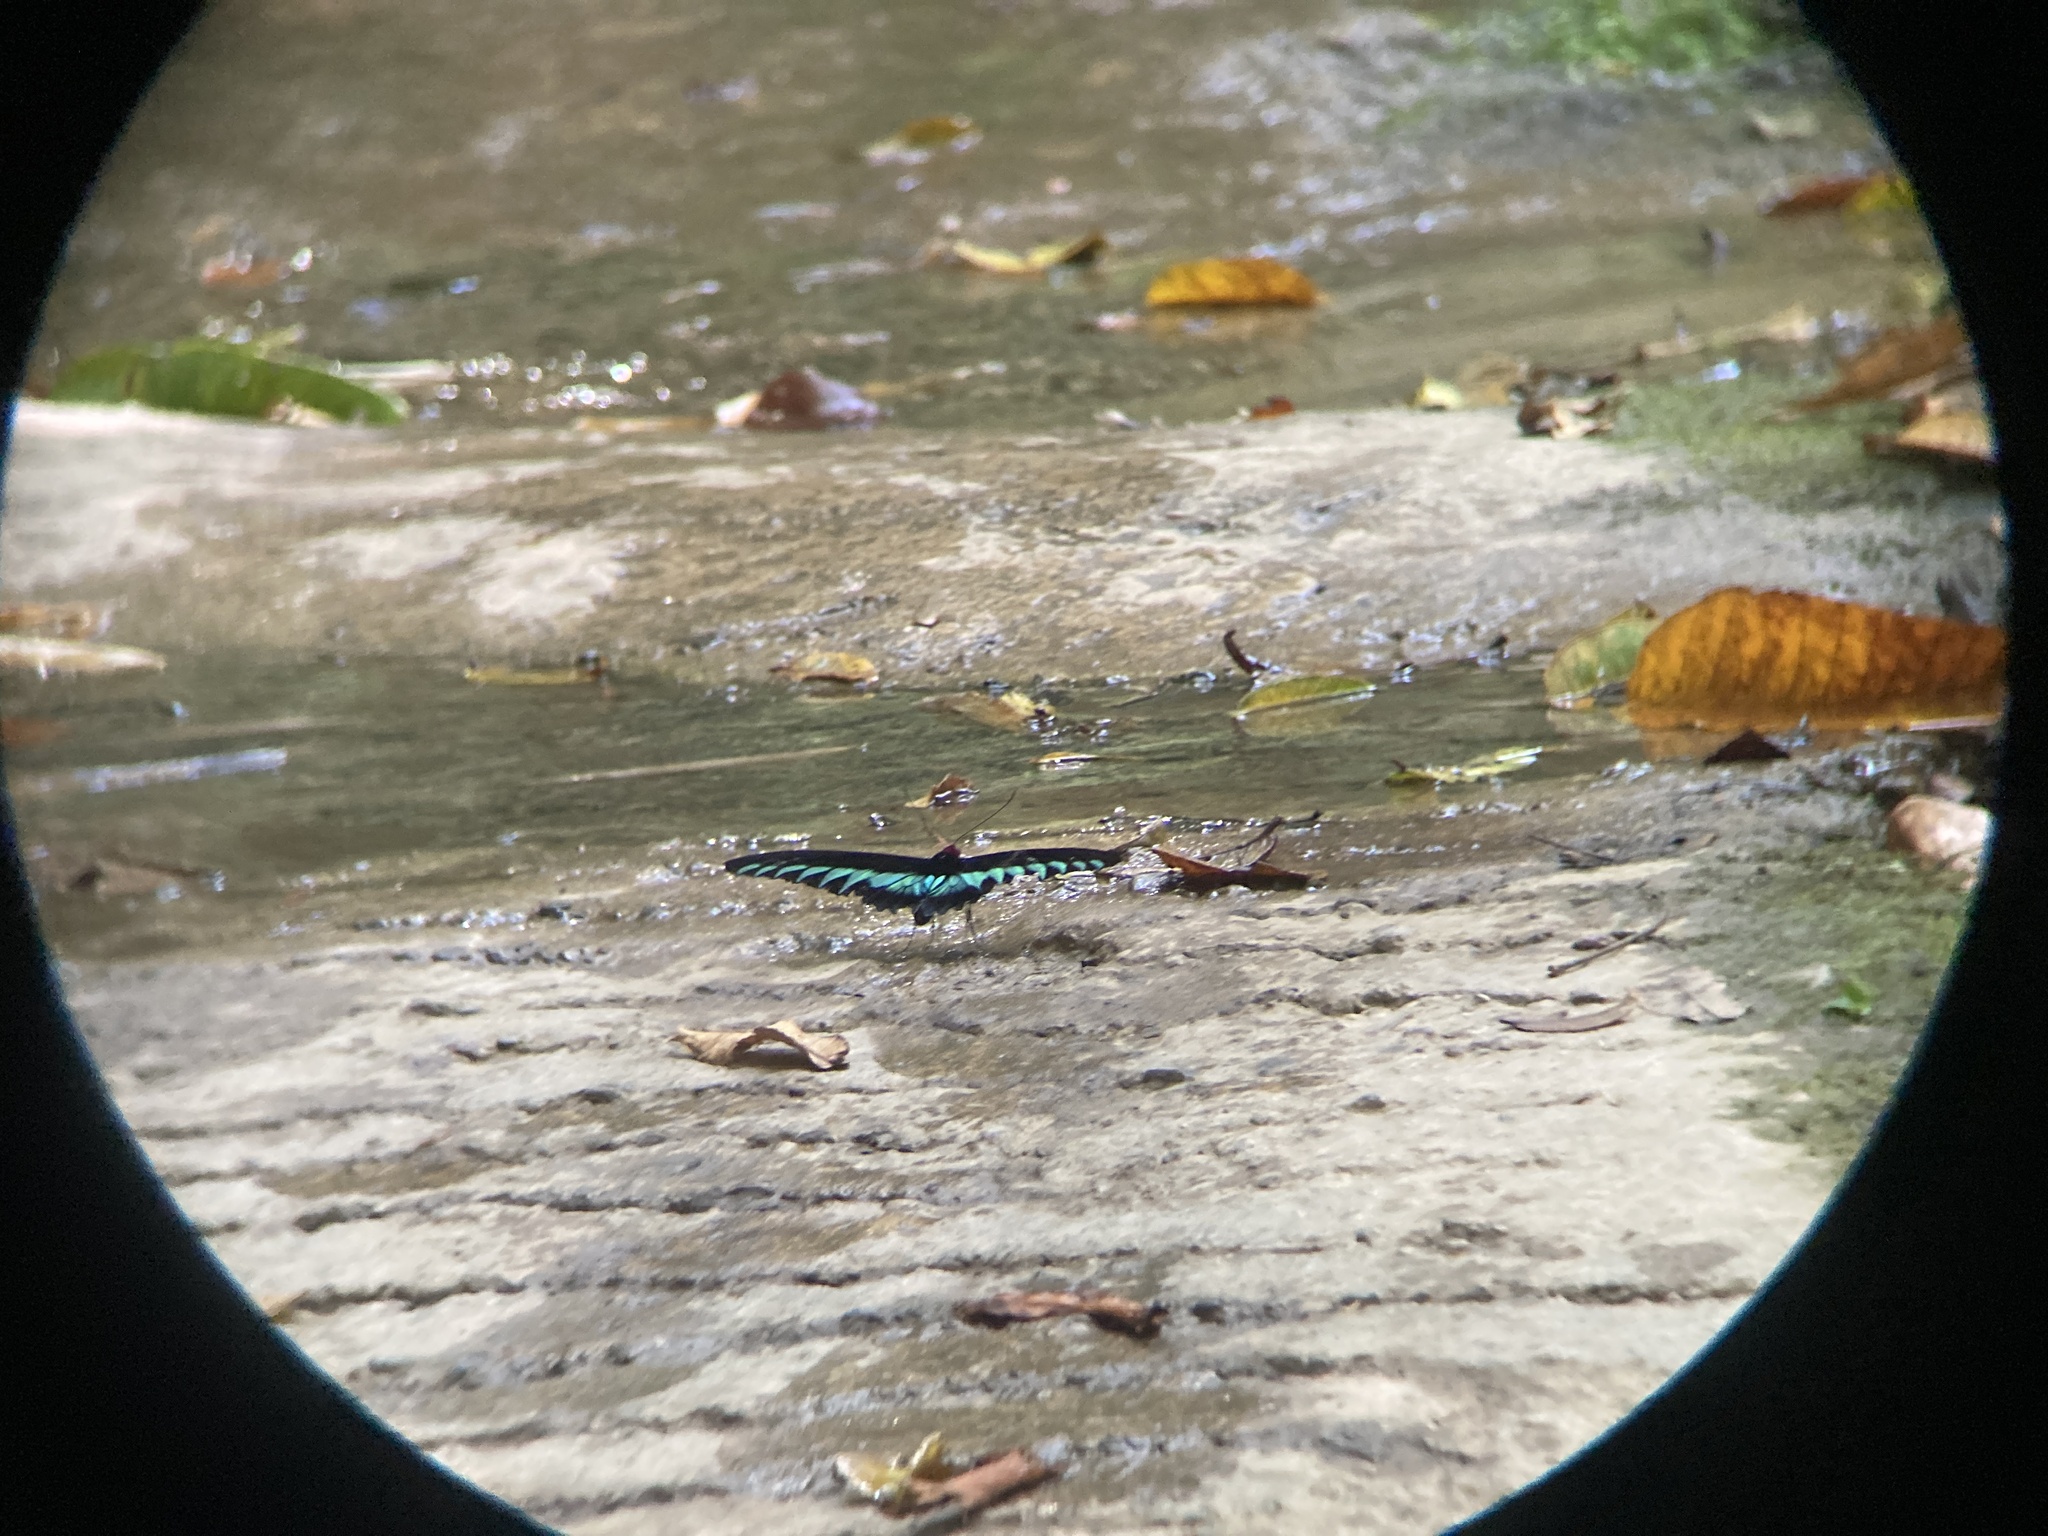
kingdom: Animalia
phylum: Arthropoda
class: Insecta
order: Lepidoptera
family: Papilionidae
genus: Trogonoptera
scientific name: Trogonoptera brookiana
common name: Raja brooke's birdwing
